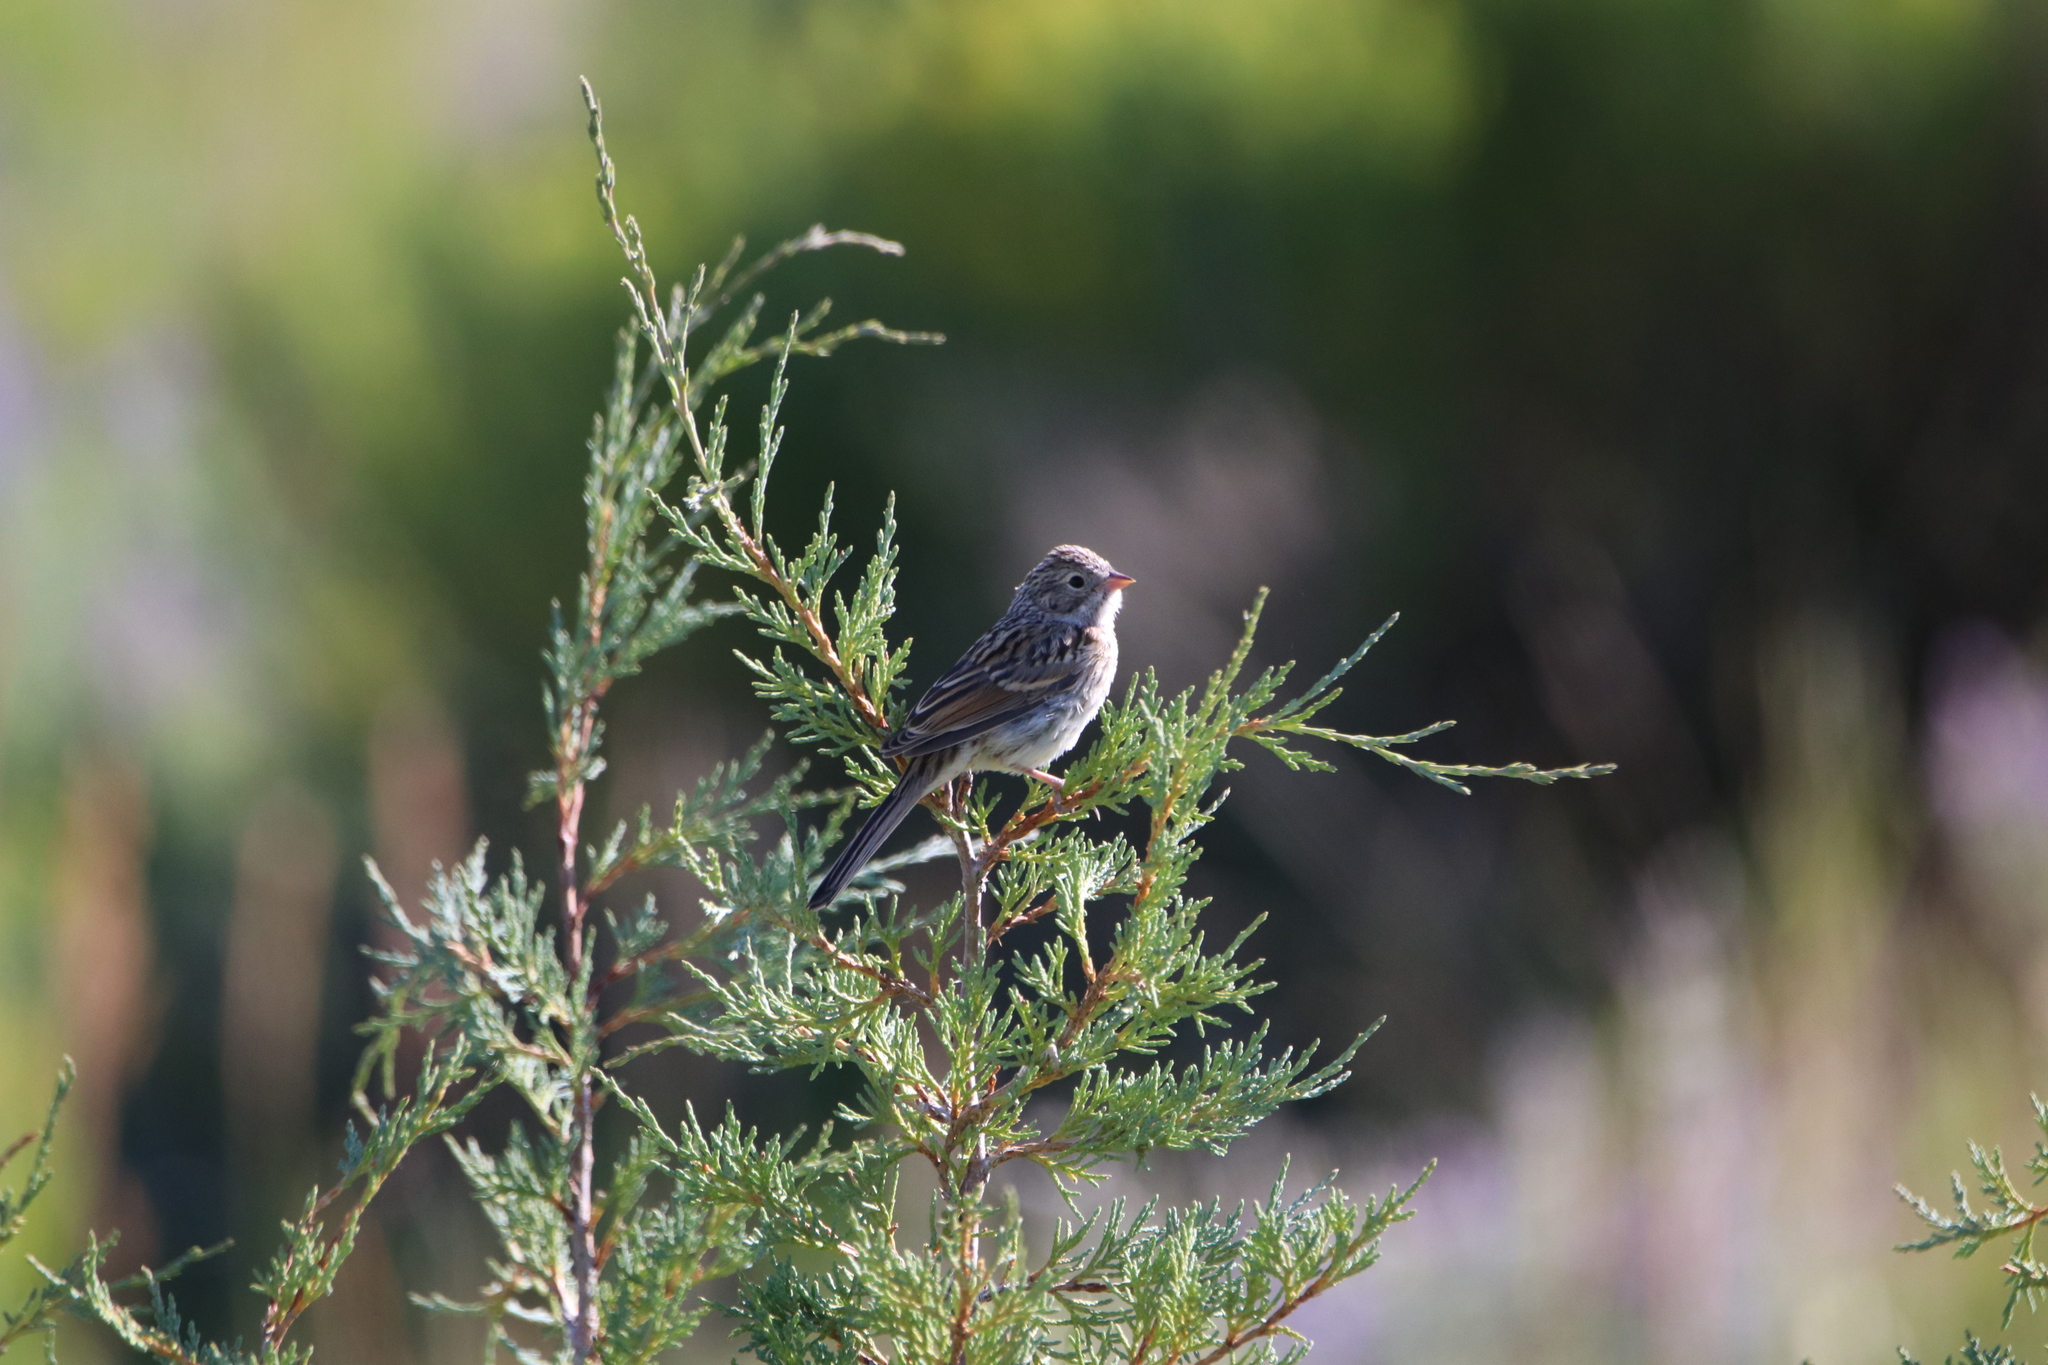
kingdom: Animalia
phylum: Chordata
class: Aves
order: Passeriformes
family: Passerellidae
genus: Spizella
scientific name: Spizella breweri
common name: Brewer's sparrow
